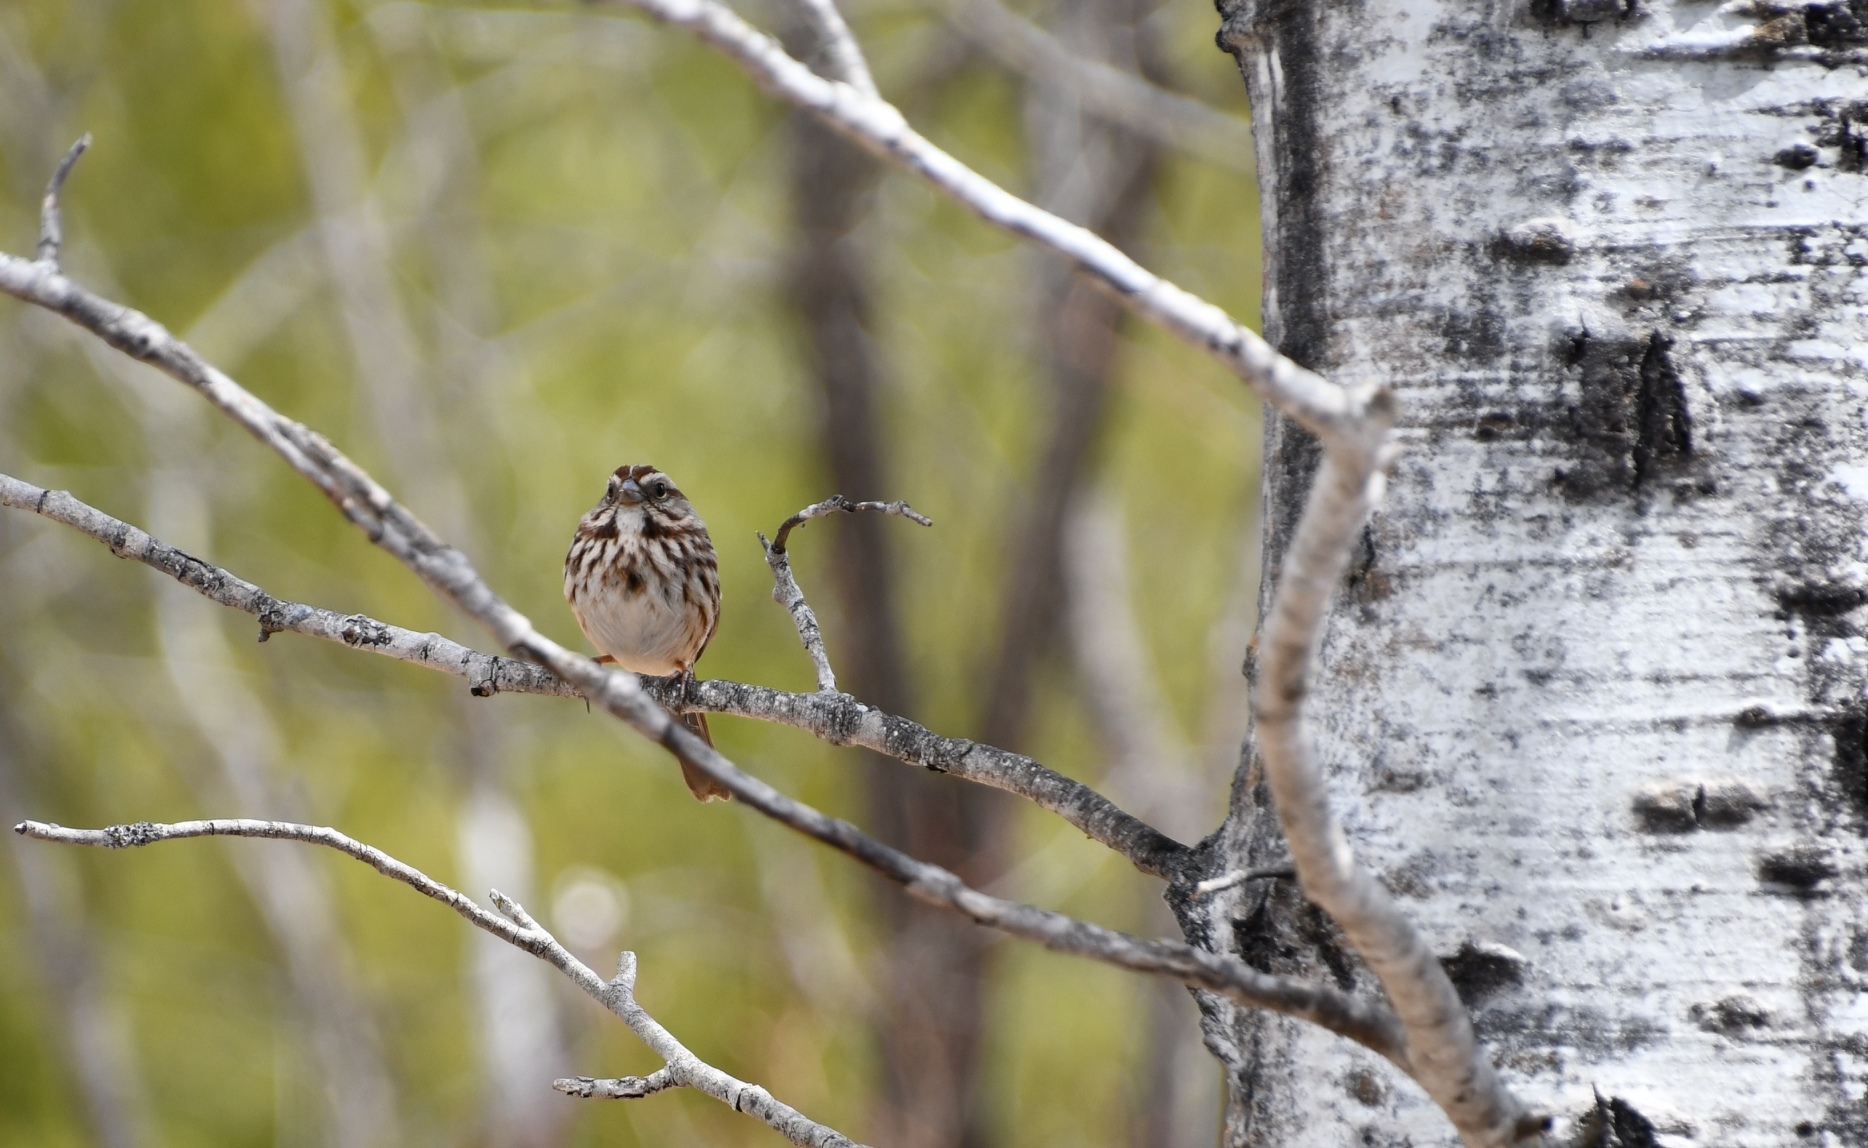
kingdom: Animalia
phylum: Chordata
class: Aves
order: Passeriformes
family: Passerellidae
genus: Melospiza
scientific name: Melospiza melodia
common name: Song sparrow
